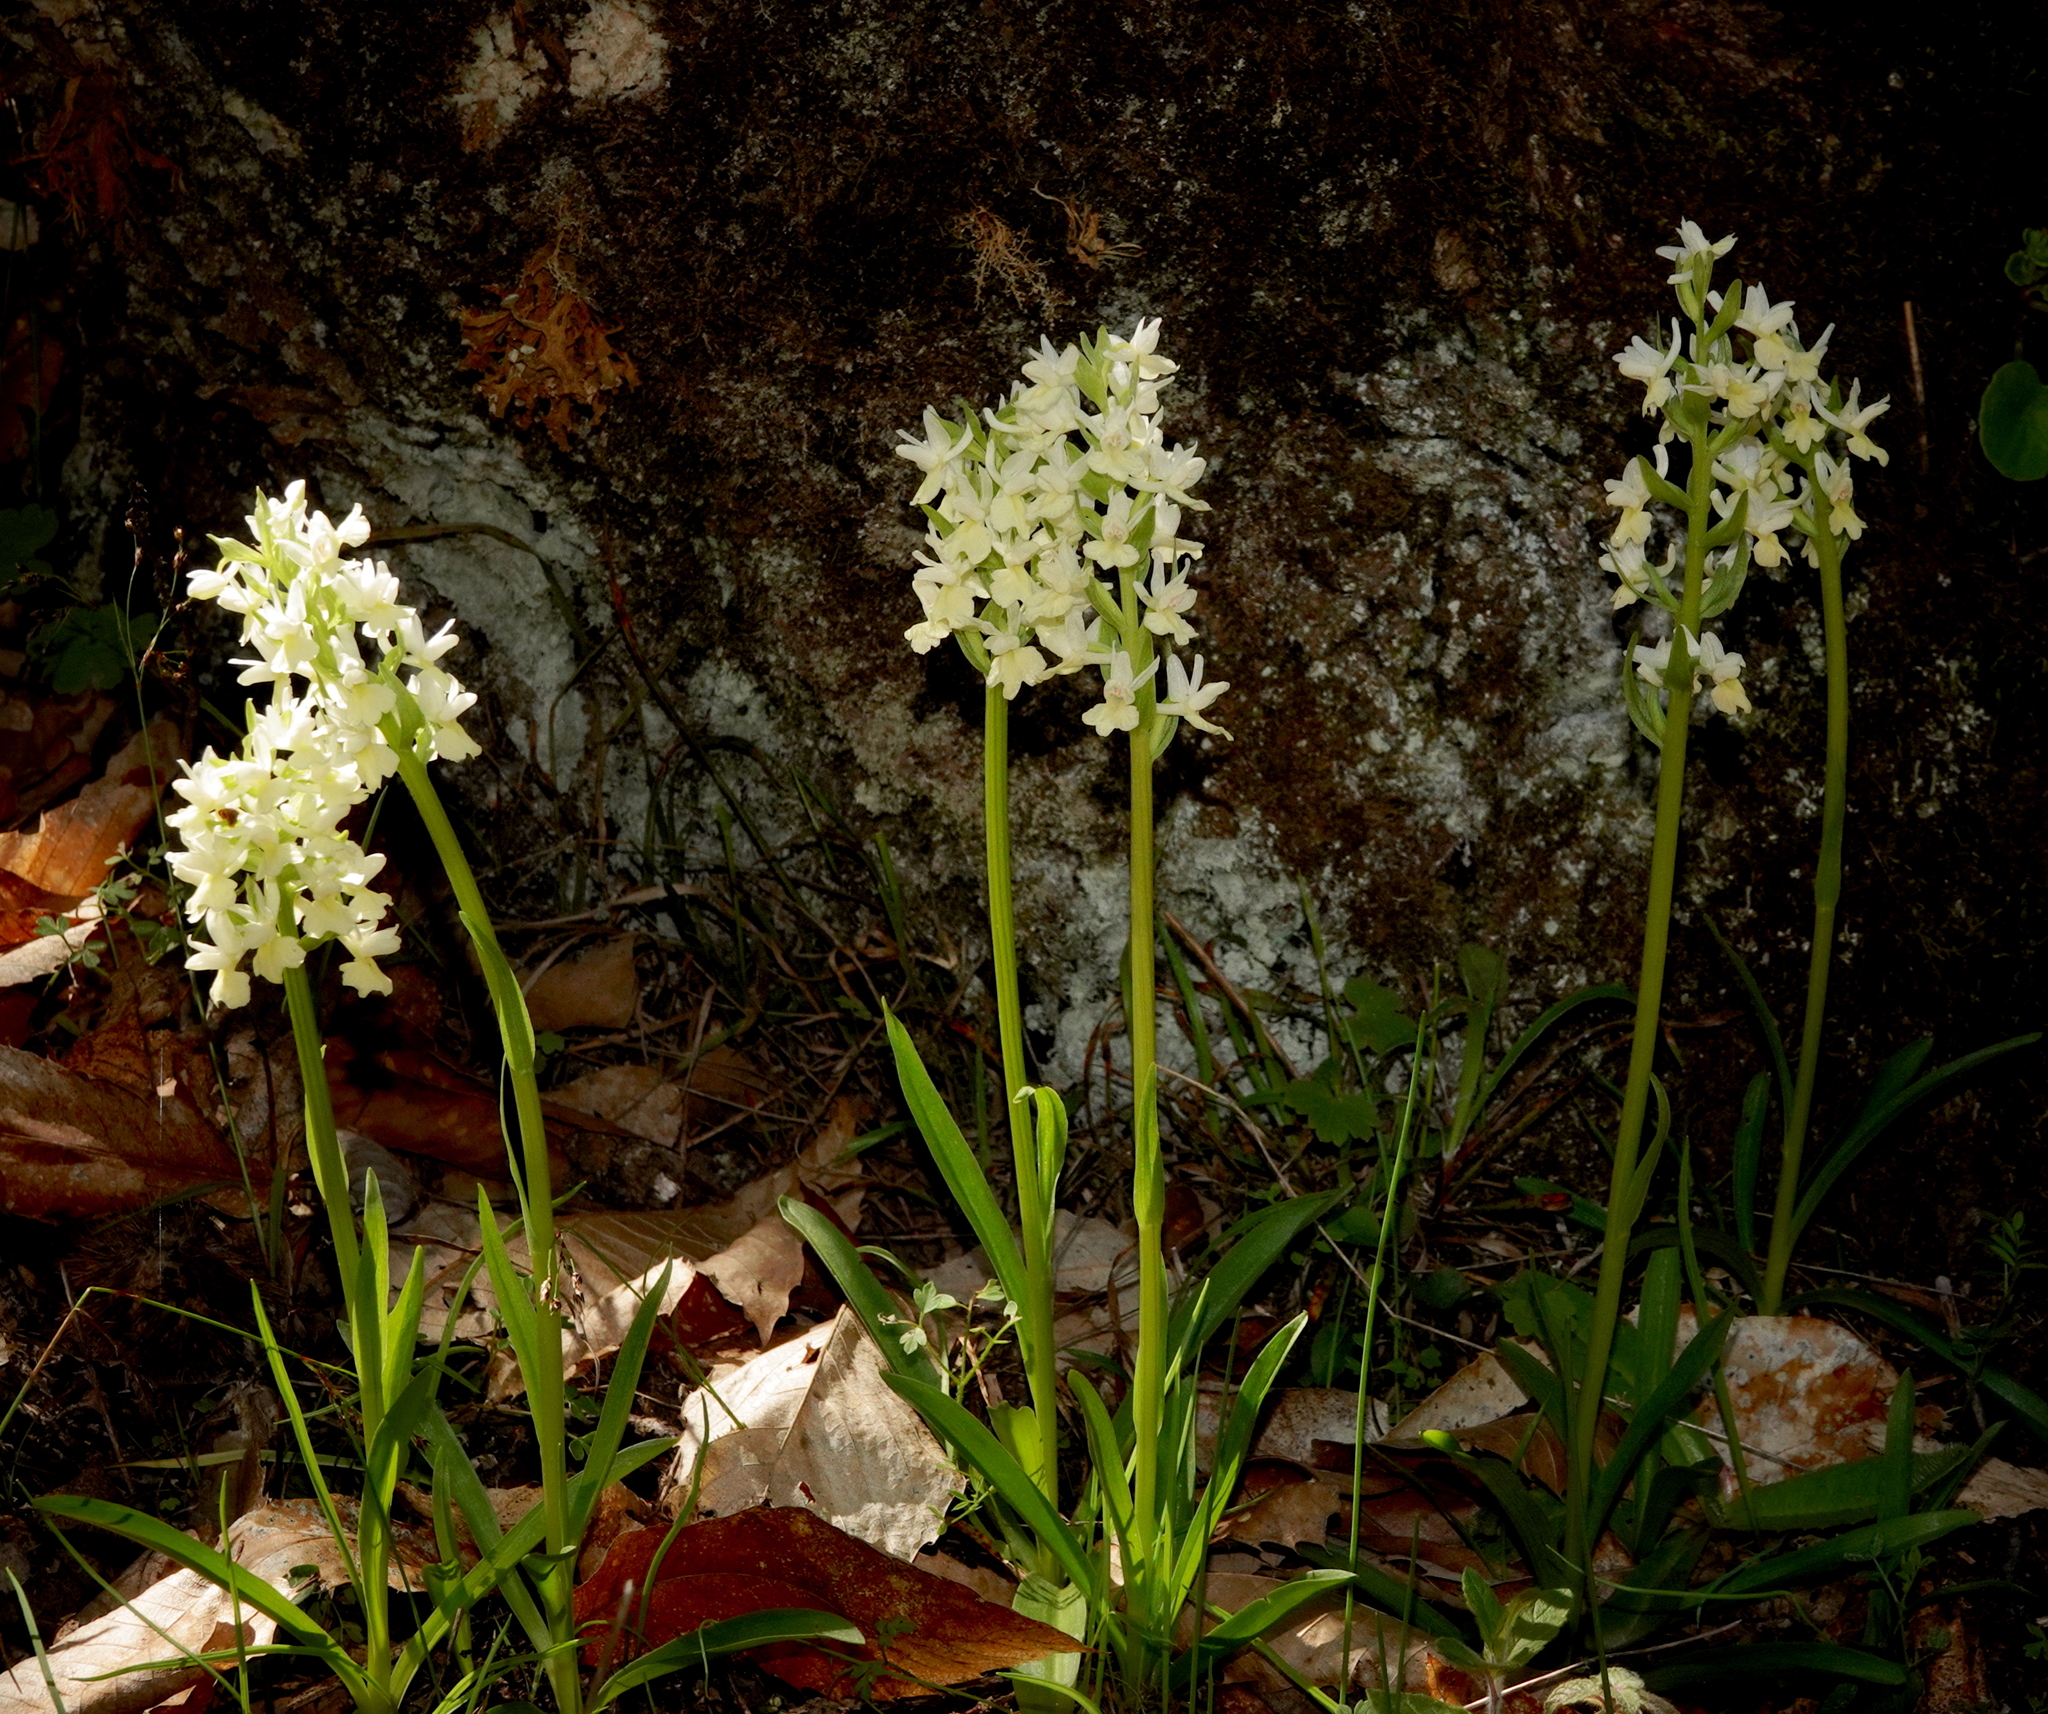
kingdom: Plantae
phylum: Tracheophyta
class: Liliopsida
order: Asparagales
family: Orchidaceae
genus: Dactylorhiza
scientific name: Dactylorhiza romana
